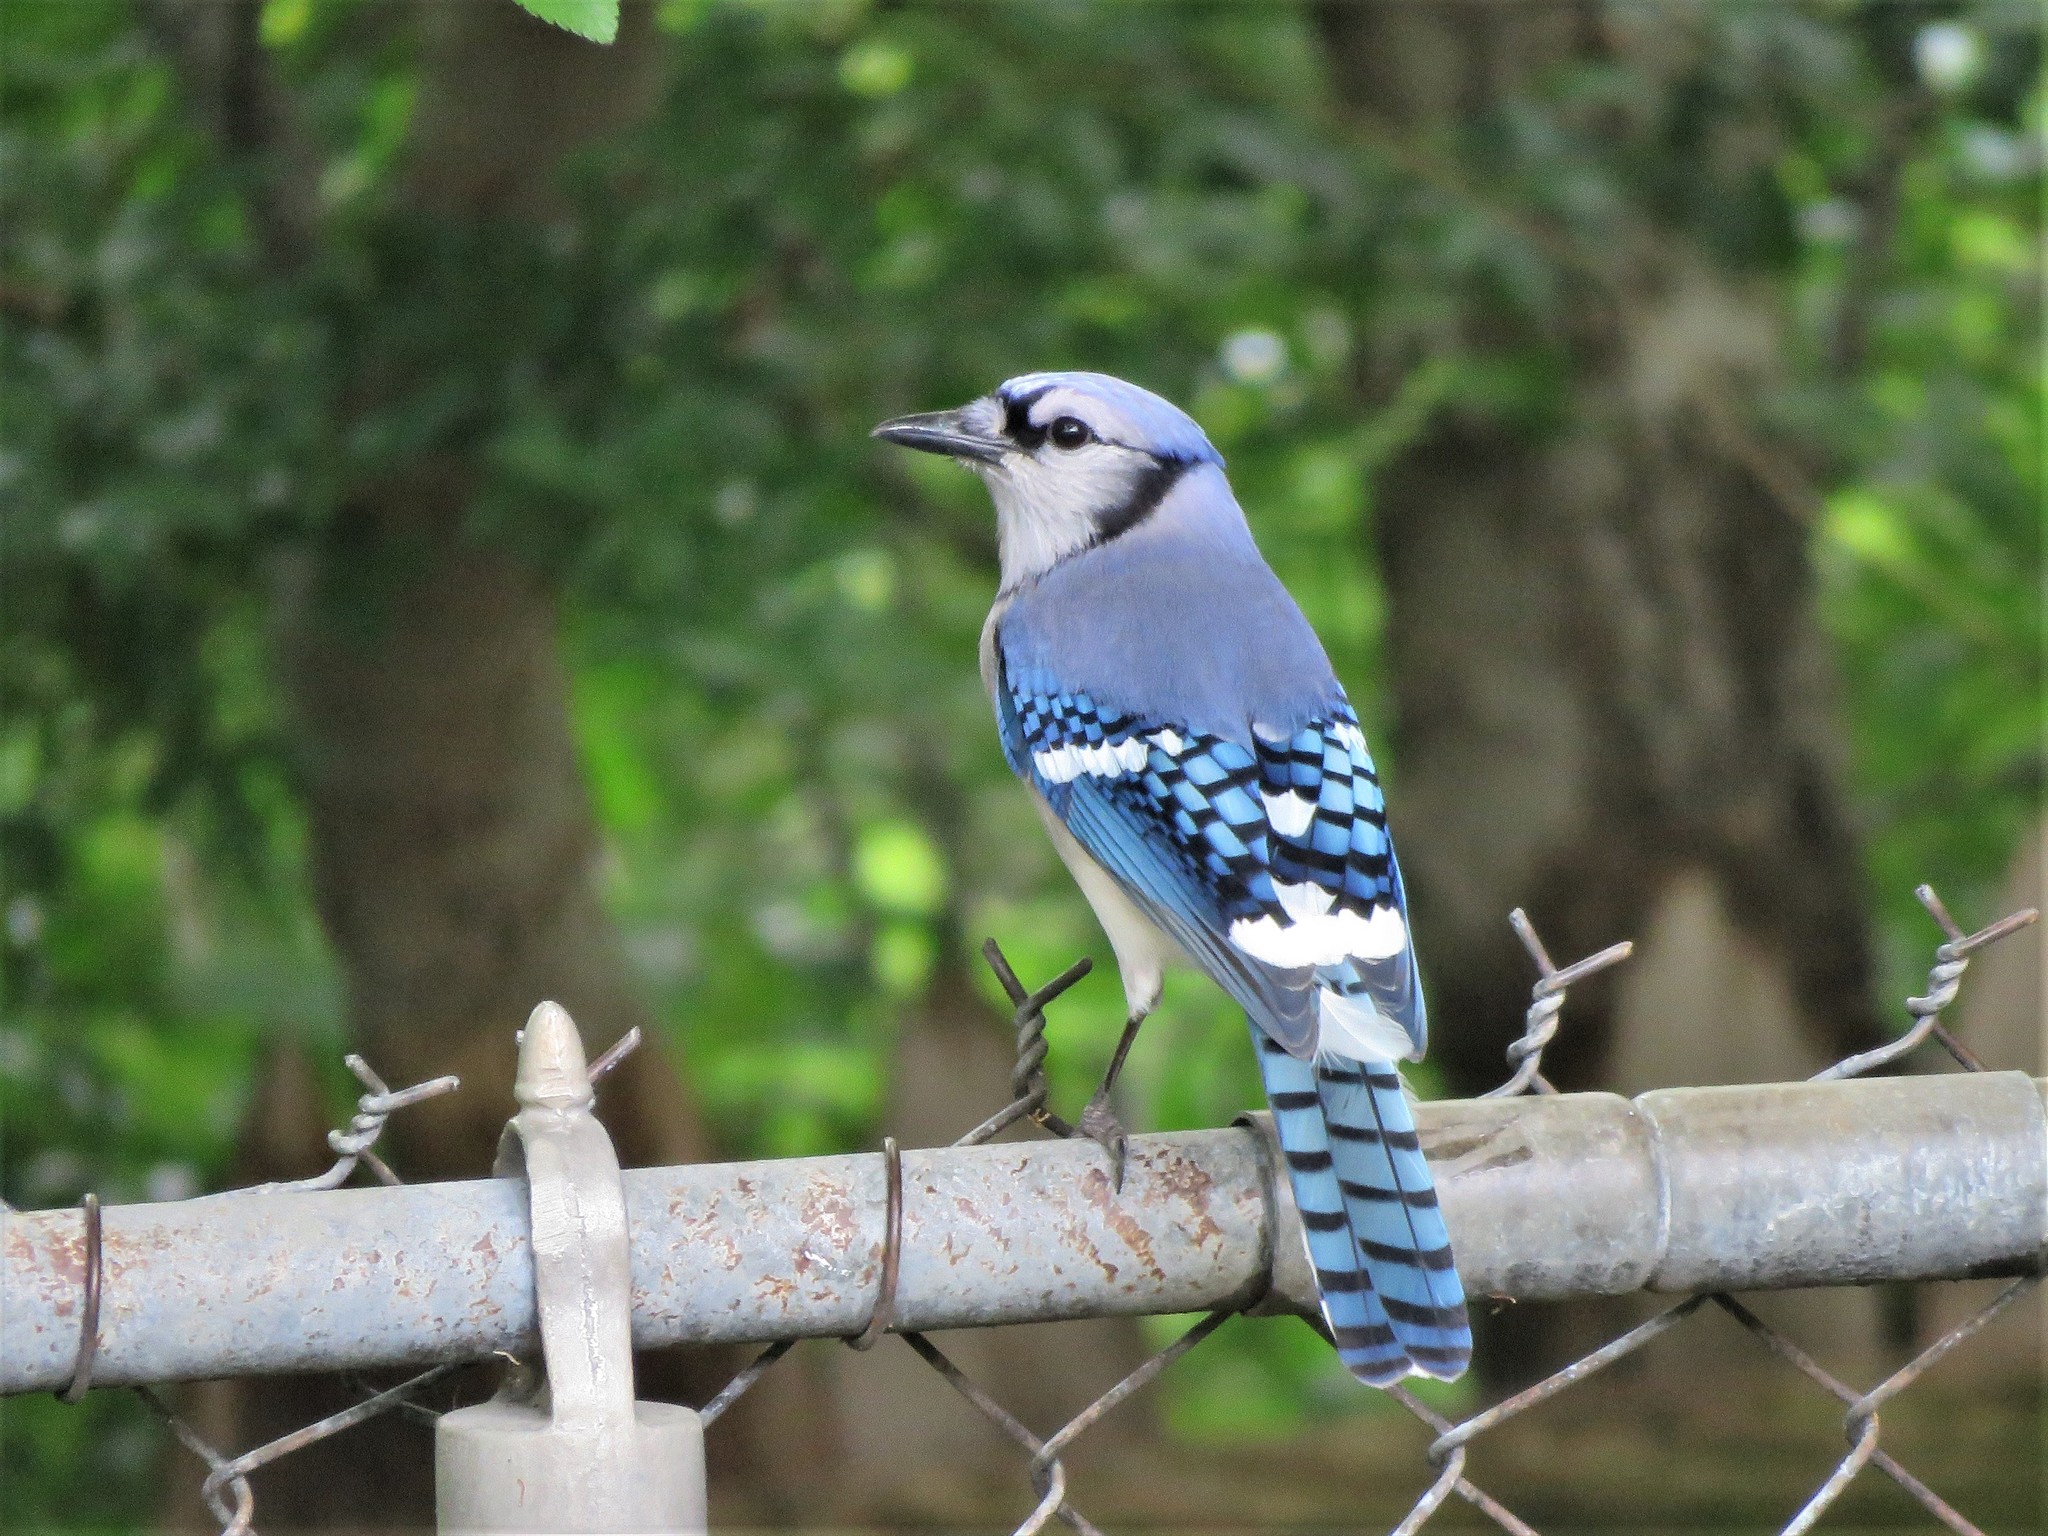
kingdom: Animalia
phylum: Chordata
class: Aves
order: Passeriformes
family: Corvidae
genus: Cyanocitta
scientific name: Cyanocitta cristata
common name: Blue jay
